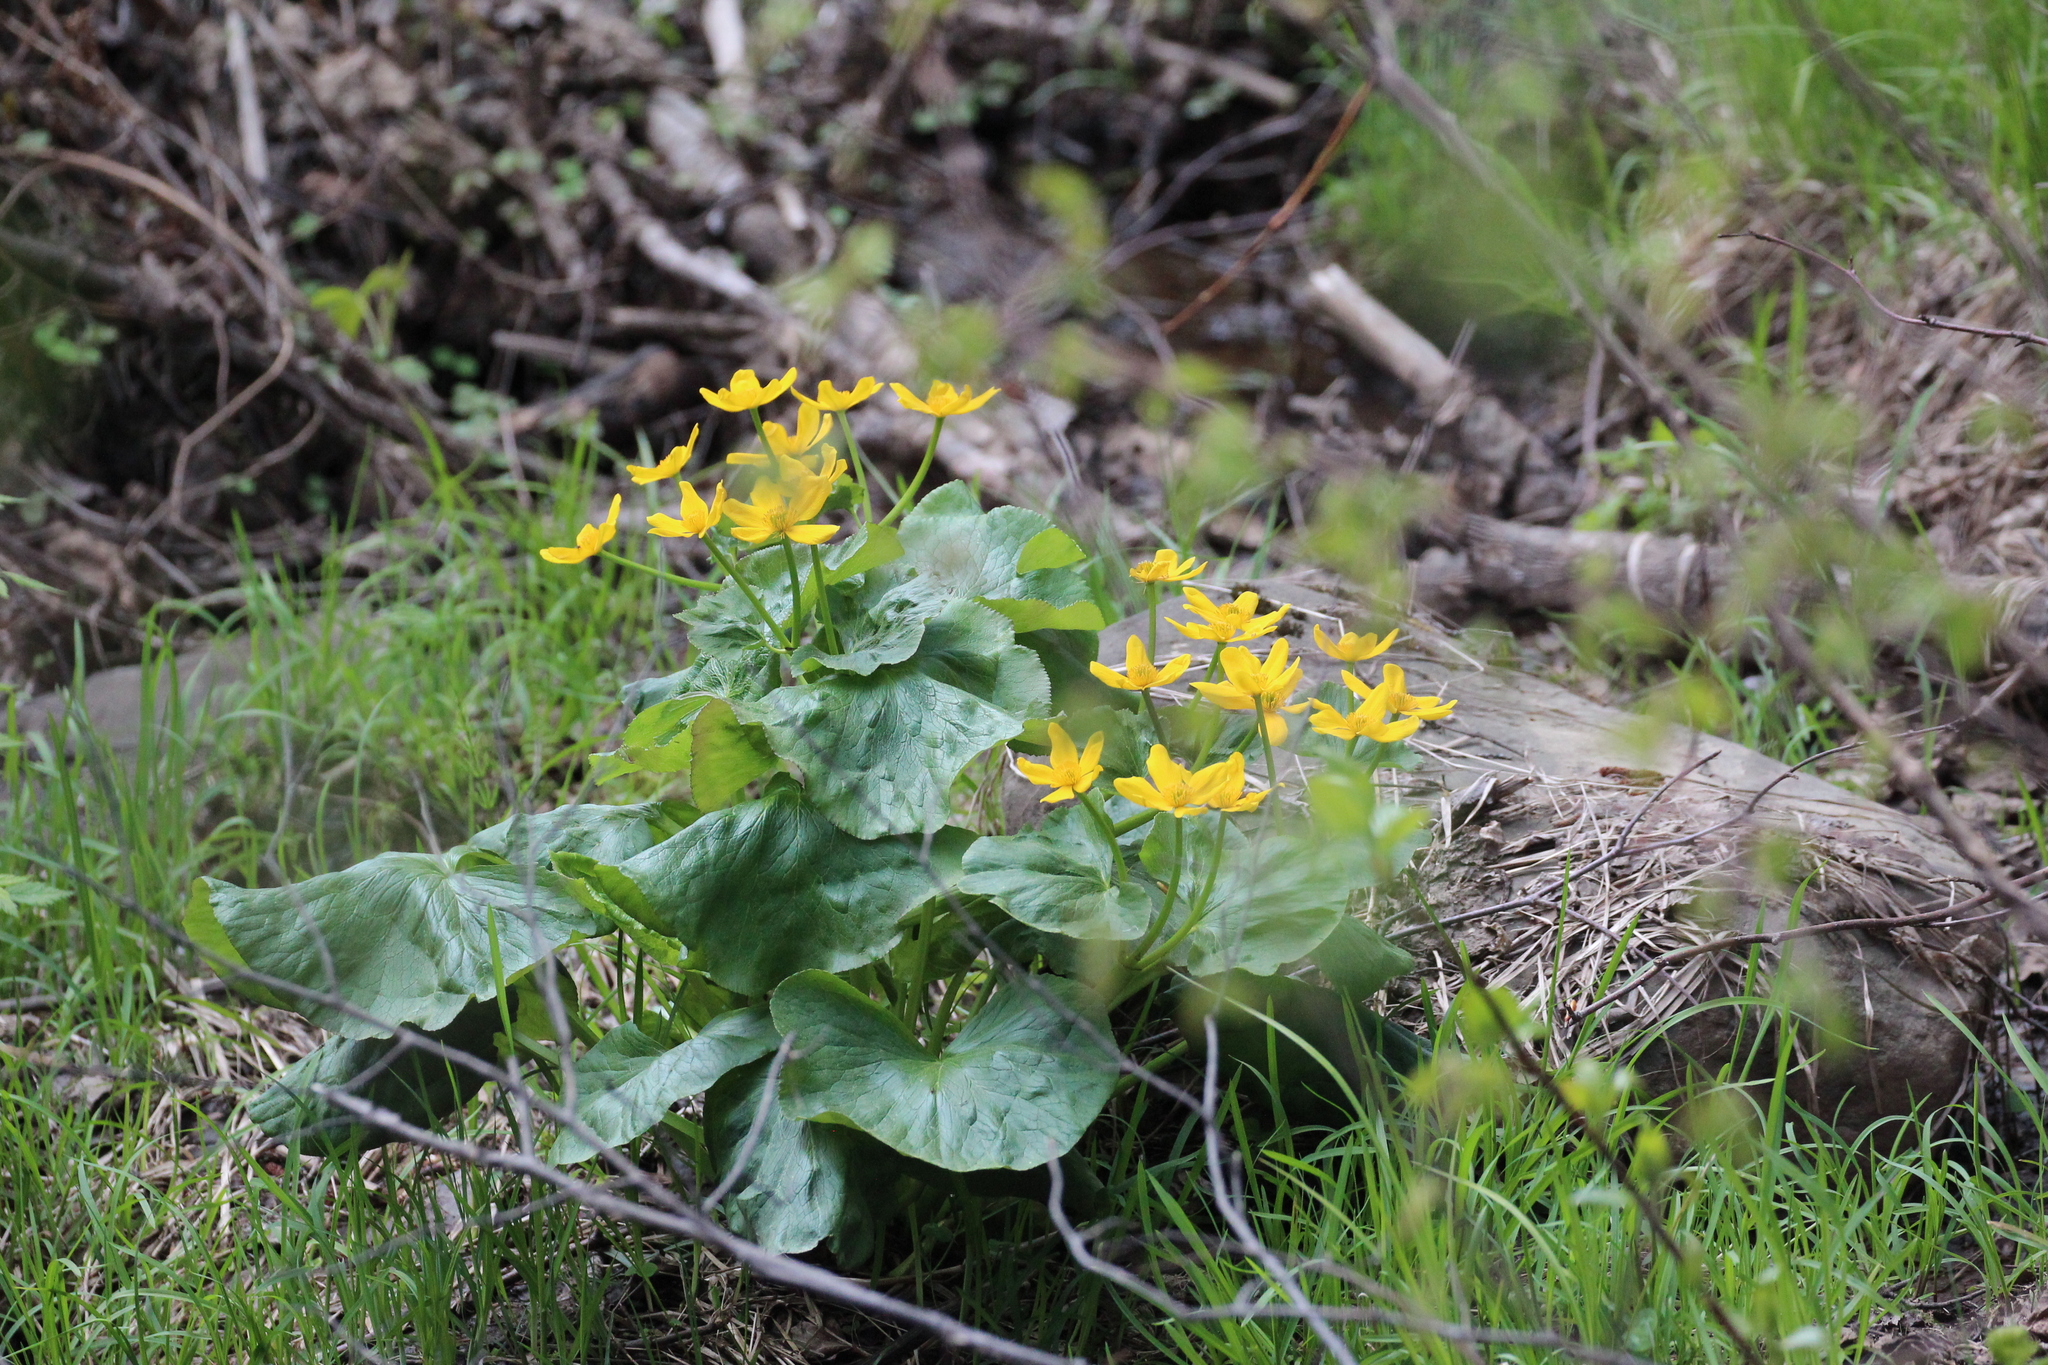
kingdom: Plantae
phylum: Tracheophyta
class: Magnoliopsida
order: Ranunculales
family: Ranunculaceae
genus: Caltha
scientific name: Caltha palustris
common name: Marsh marigold
